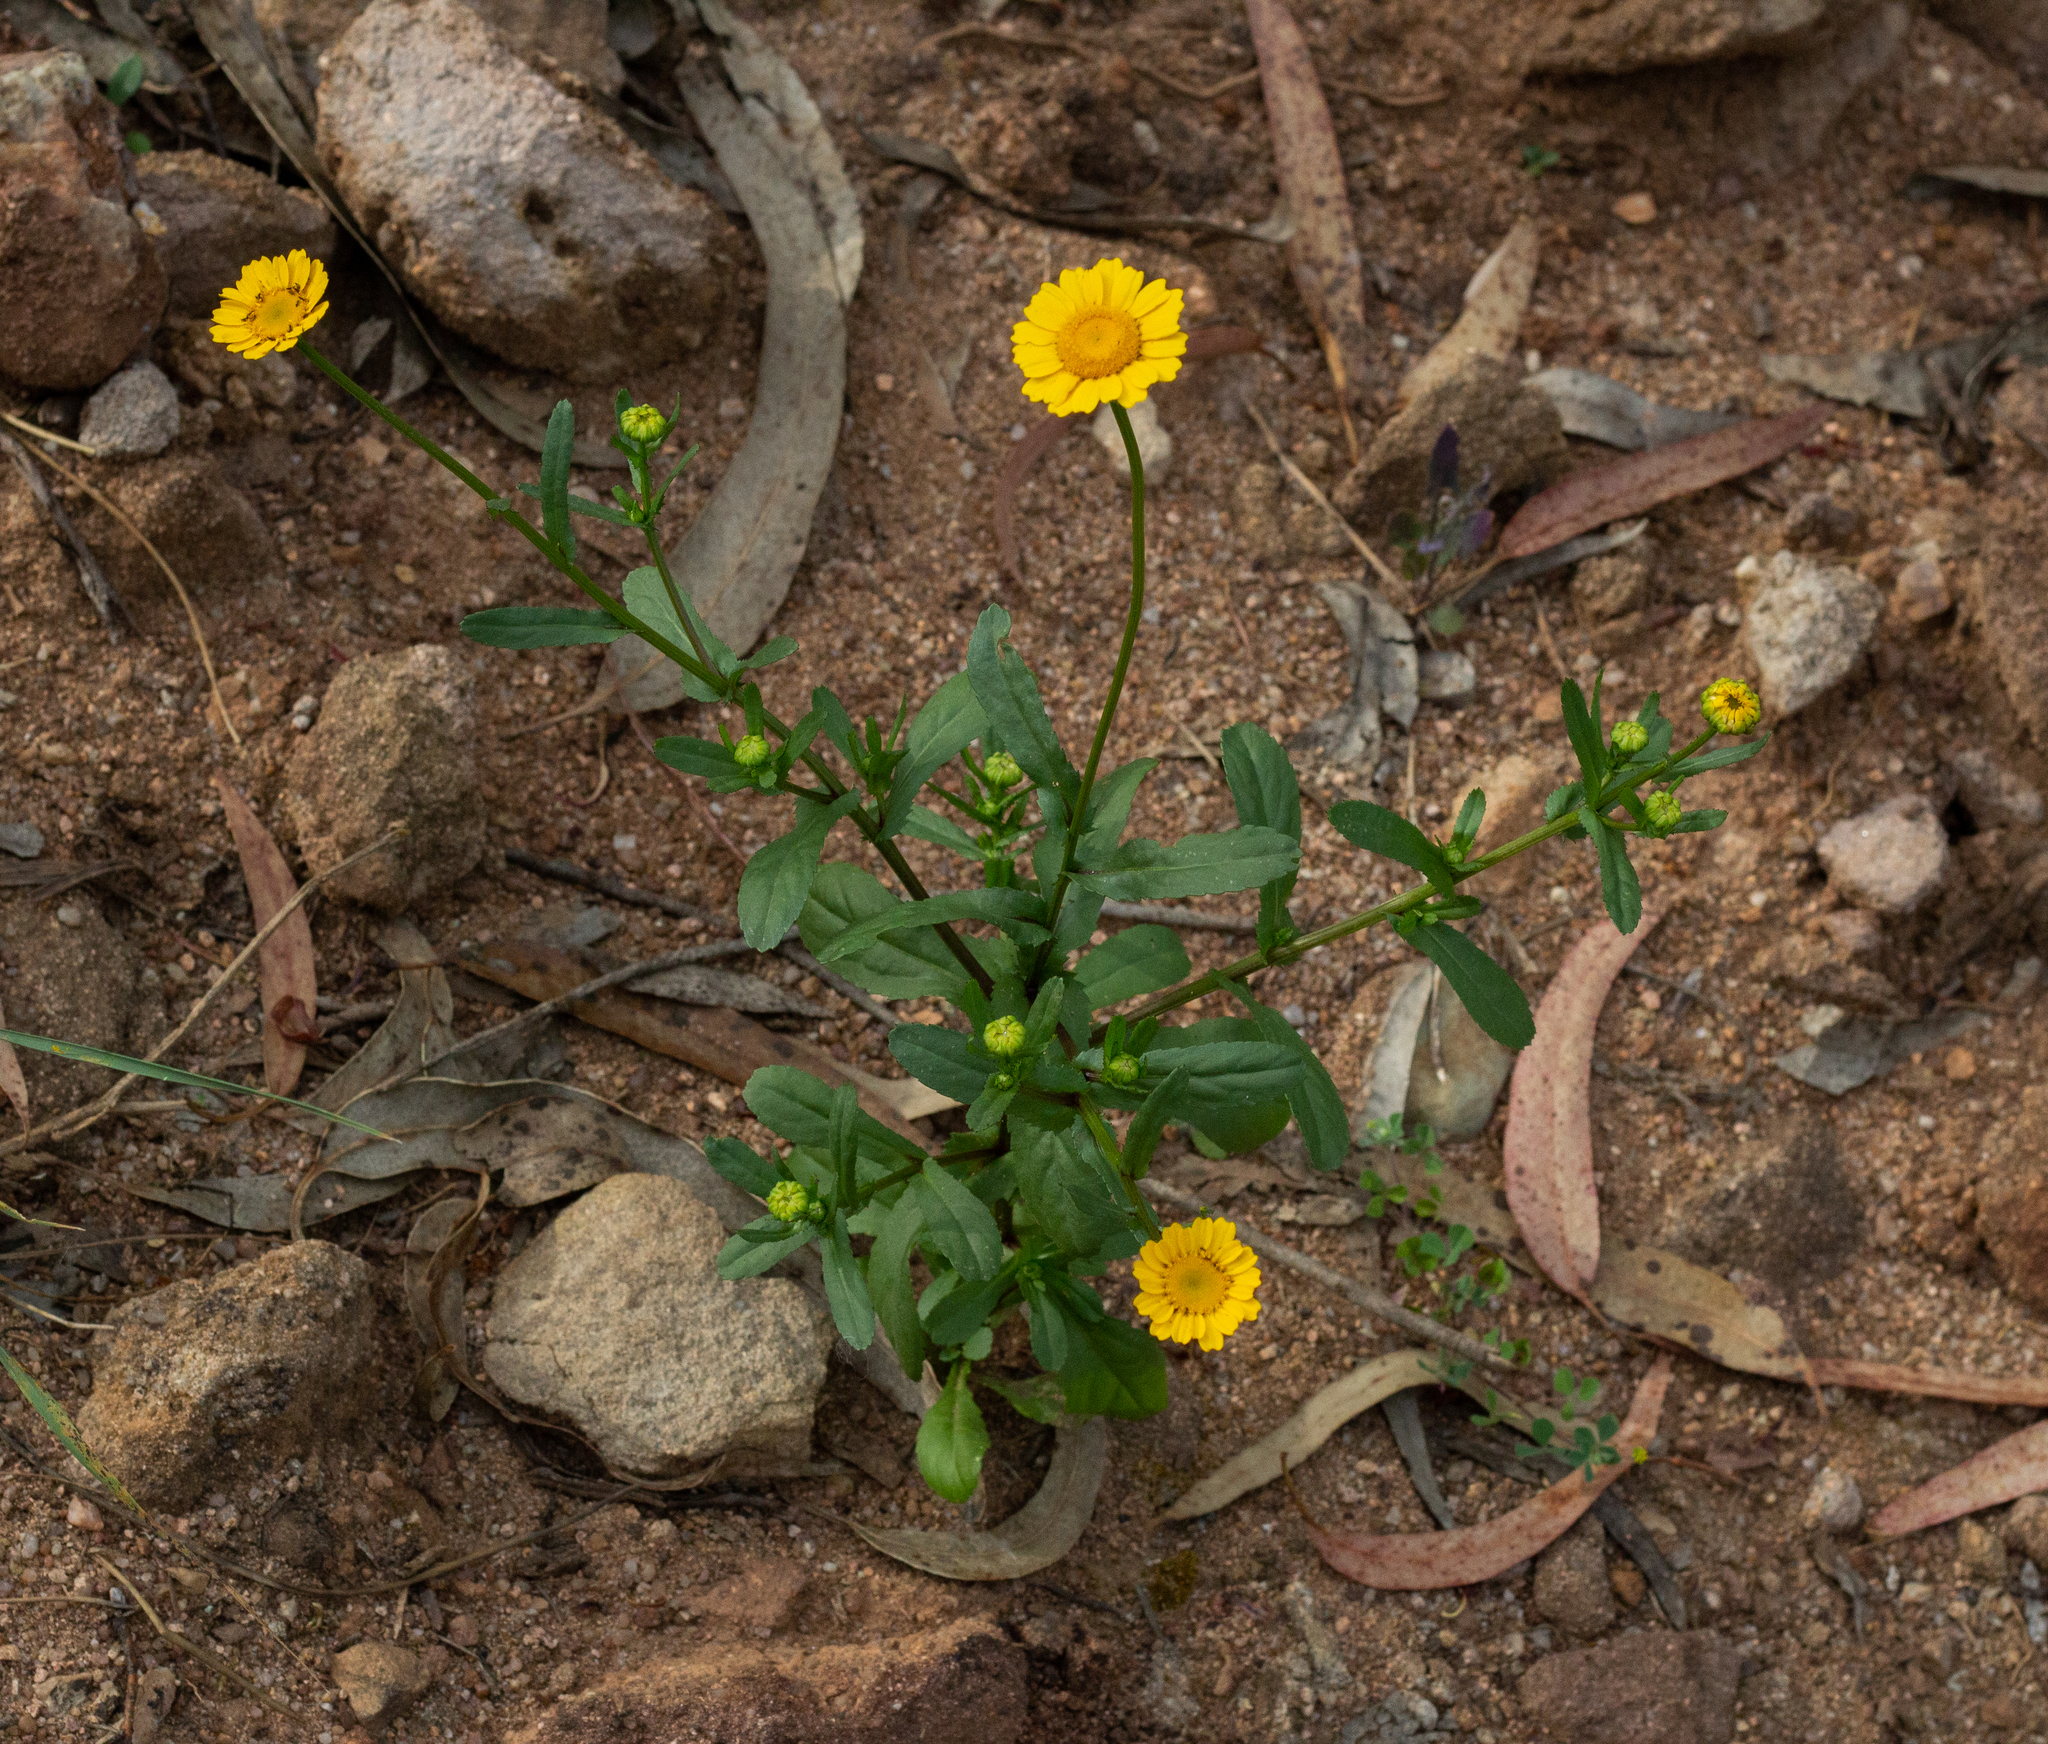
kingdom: Plantae
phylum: Tracheophyta
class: Magnoliopsida
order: Asterales
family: Asteraceae
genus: Coleostephus
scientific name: Coleostephus myconis
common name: Mediterranean marigold
